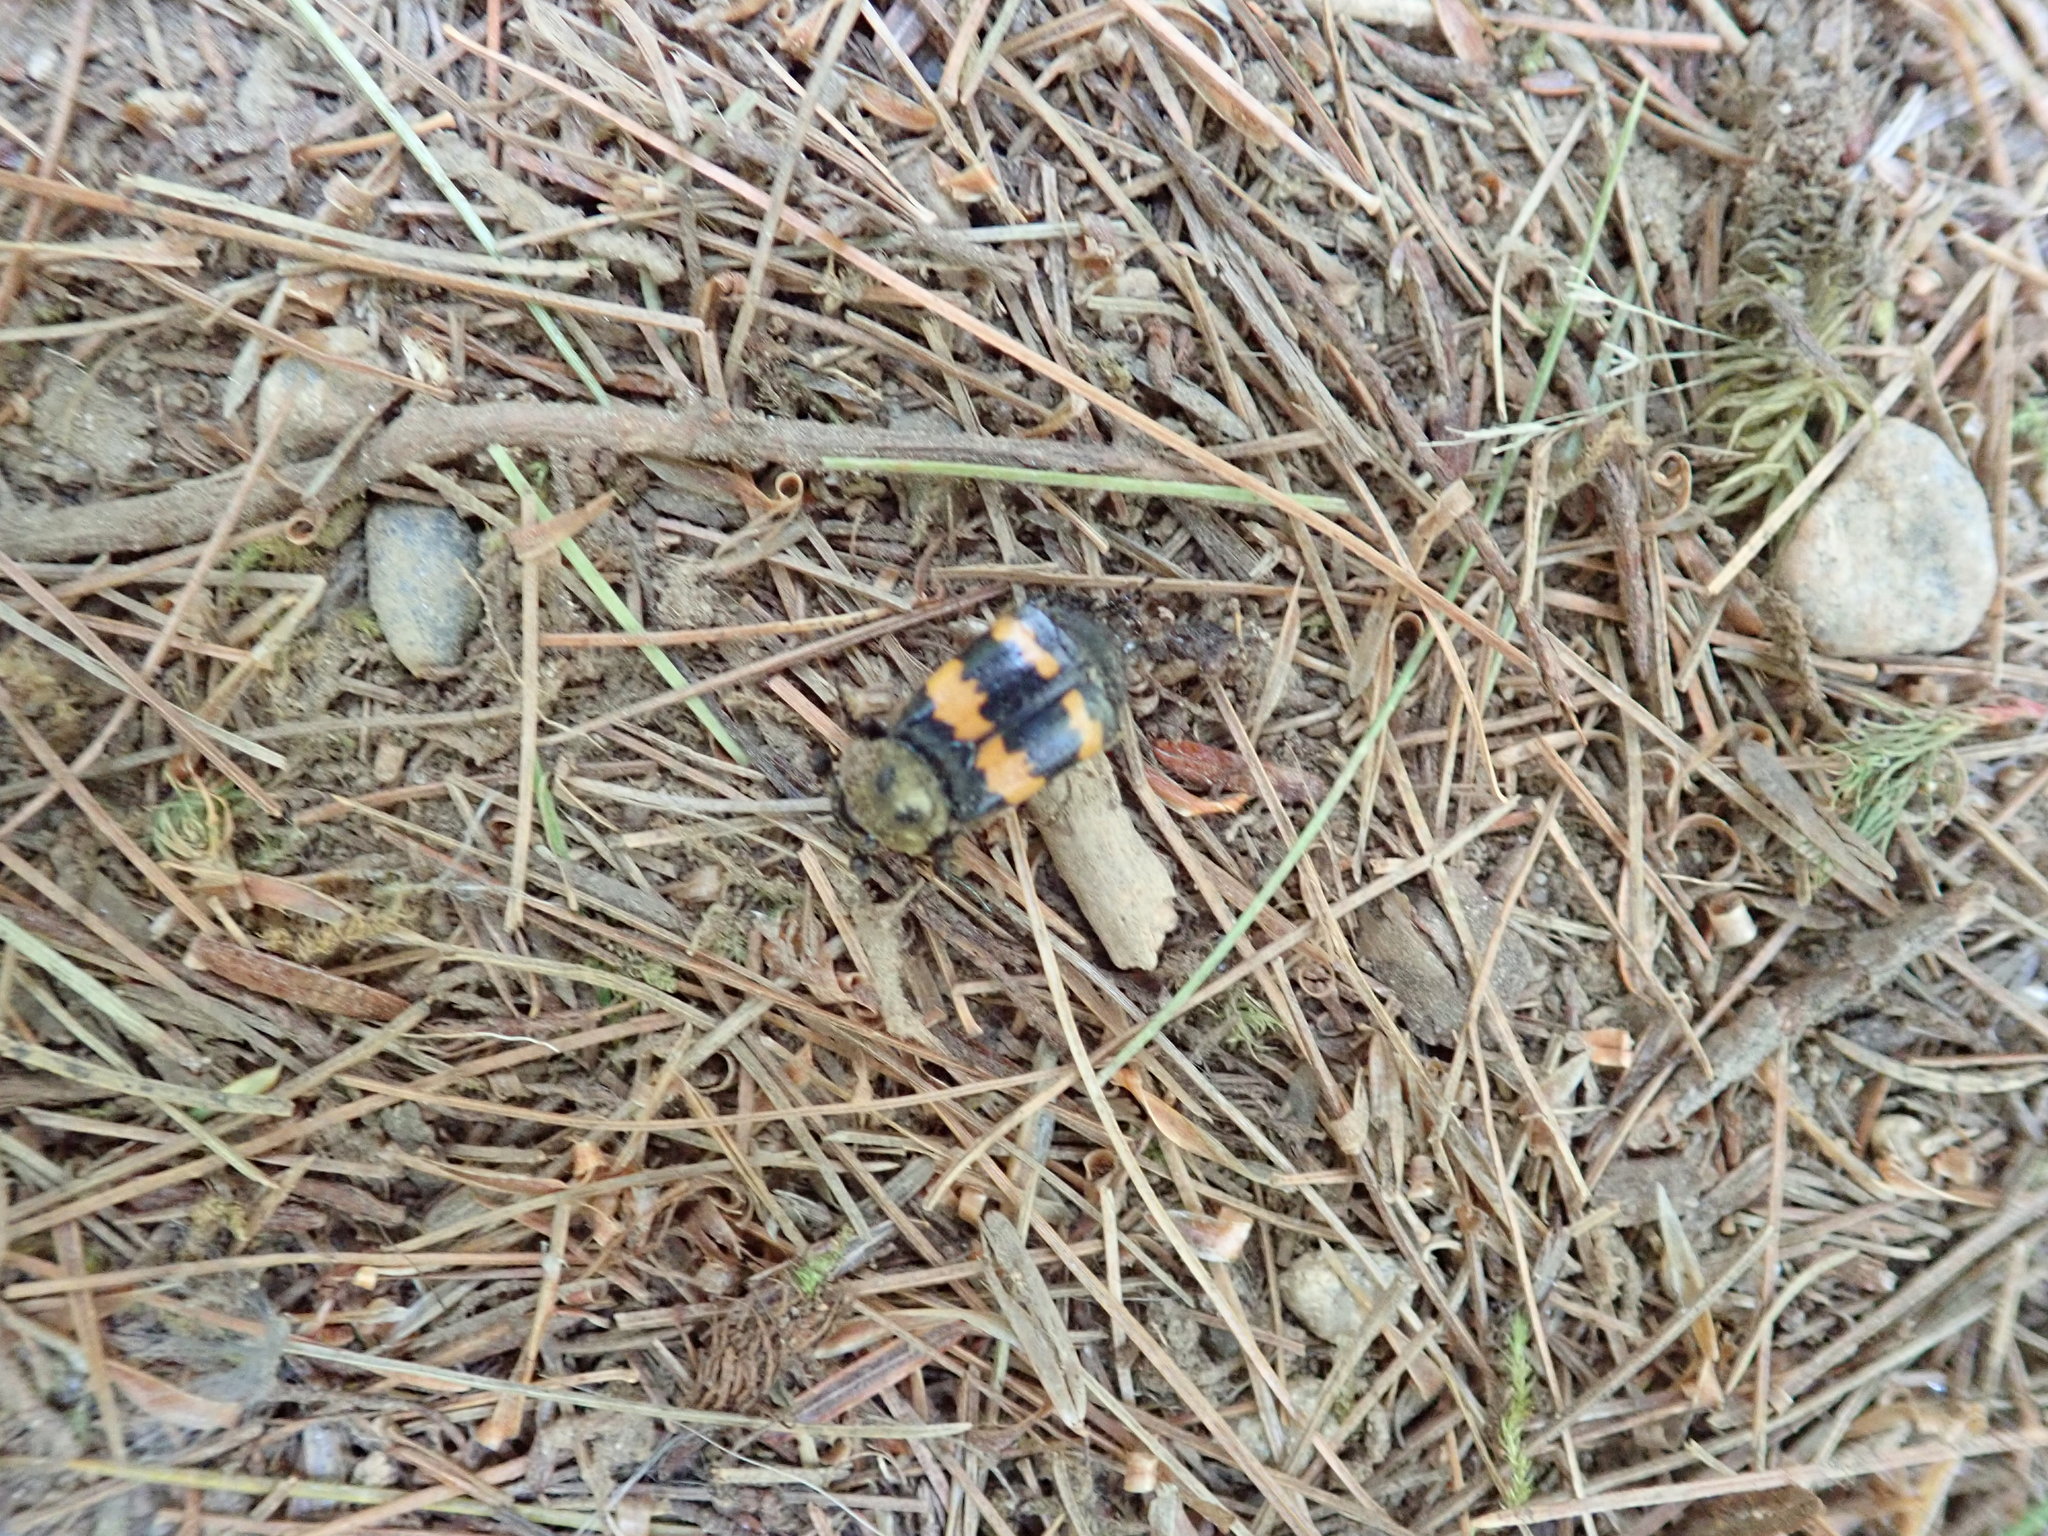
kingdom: Animalia
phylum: Arthropoda
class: Insecta
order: Coleoptera
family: Staphylinidae
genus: Nicrophorus
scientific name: Nicrophorus tomentosus
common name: Tomentose burying beetle
